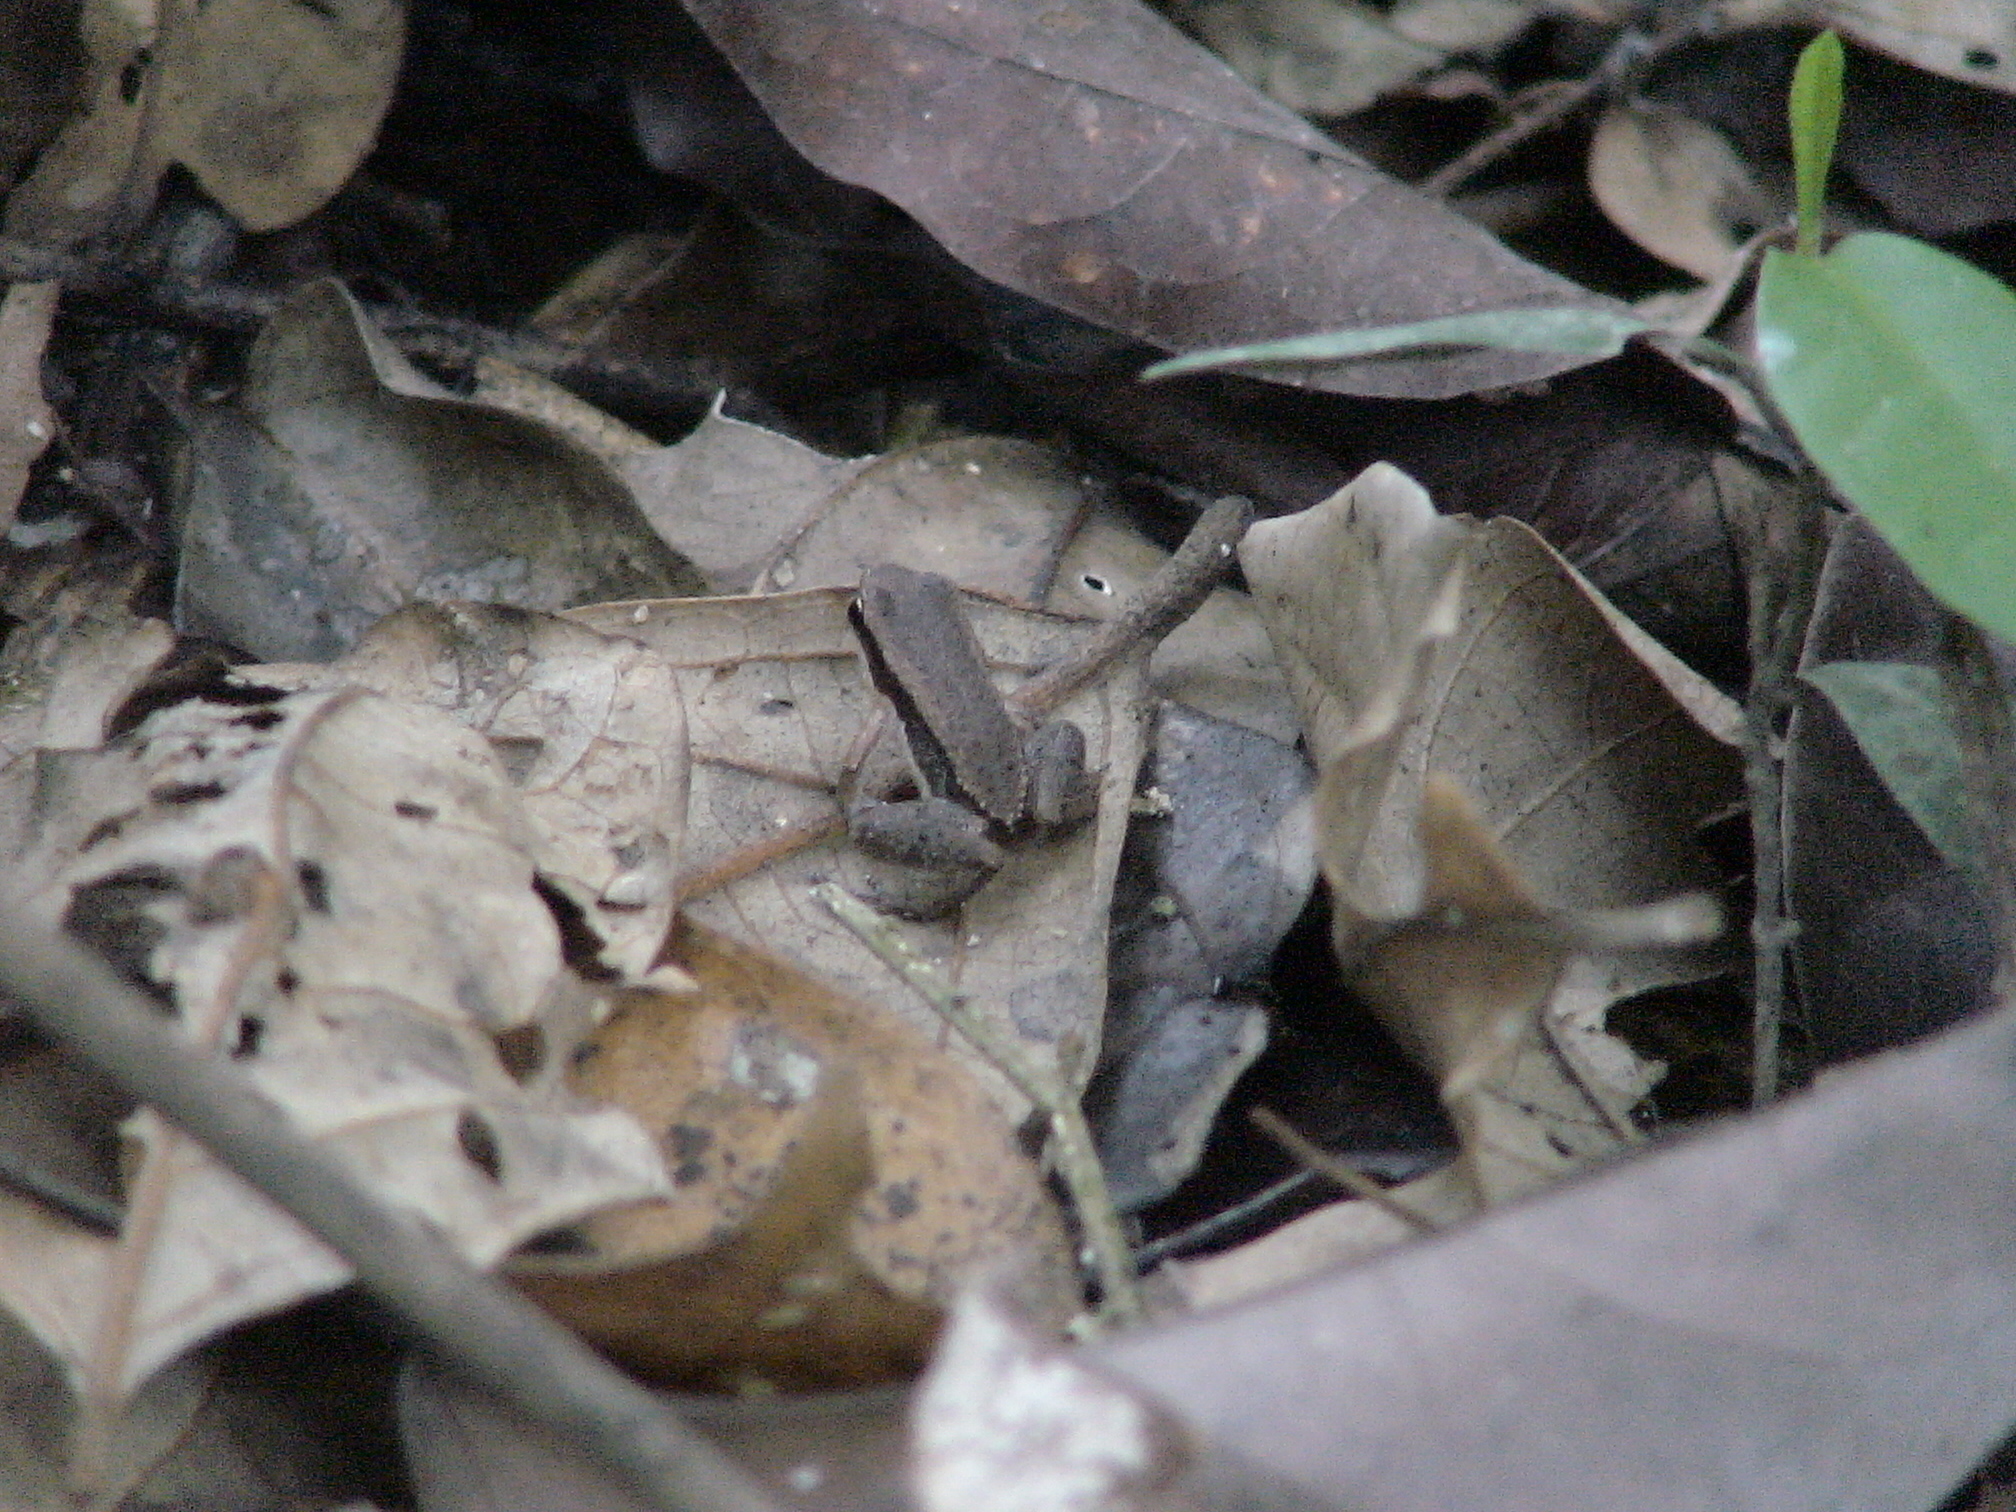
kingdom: Animalia
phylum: Chordata
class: Amphibia
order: Anura
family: Aromobatidae
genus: Allobates
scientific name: Allobates trilineatus
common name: Three-striped rocket frog
